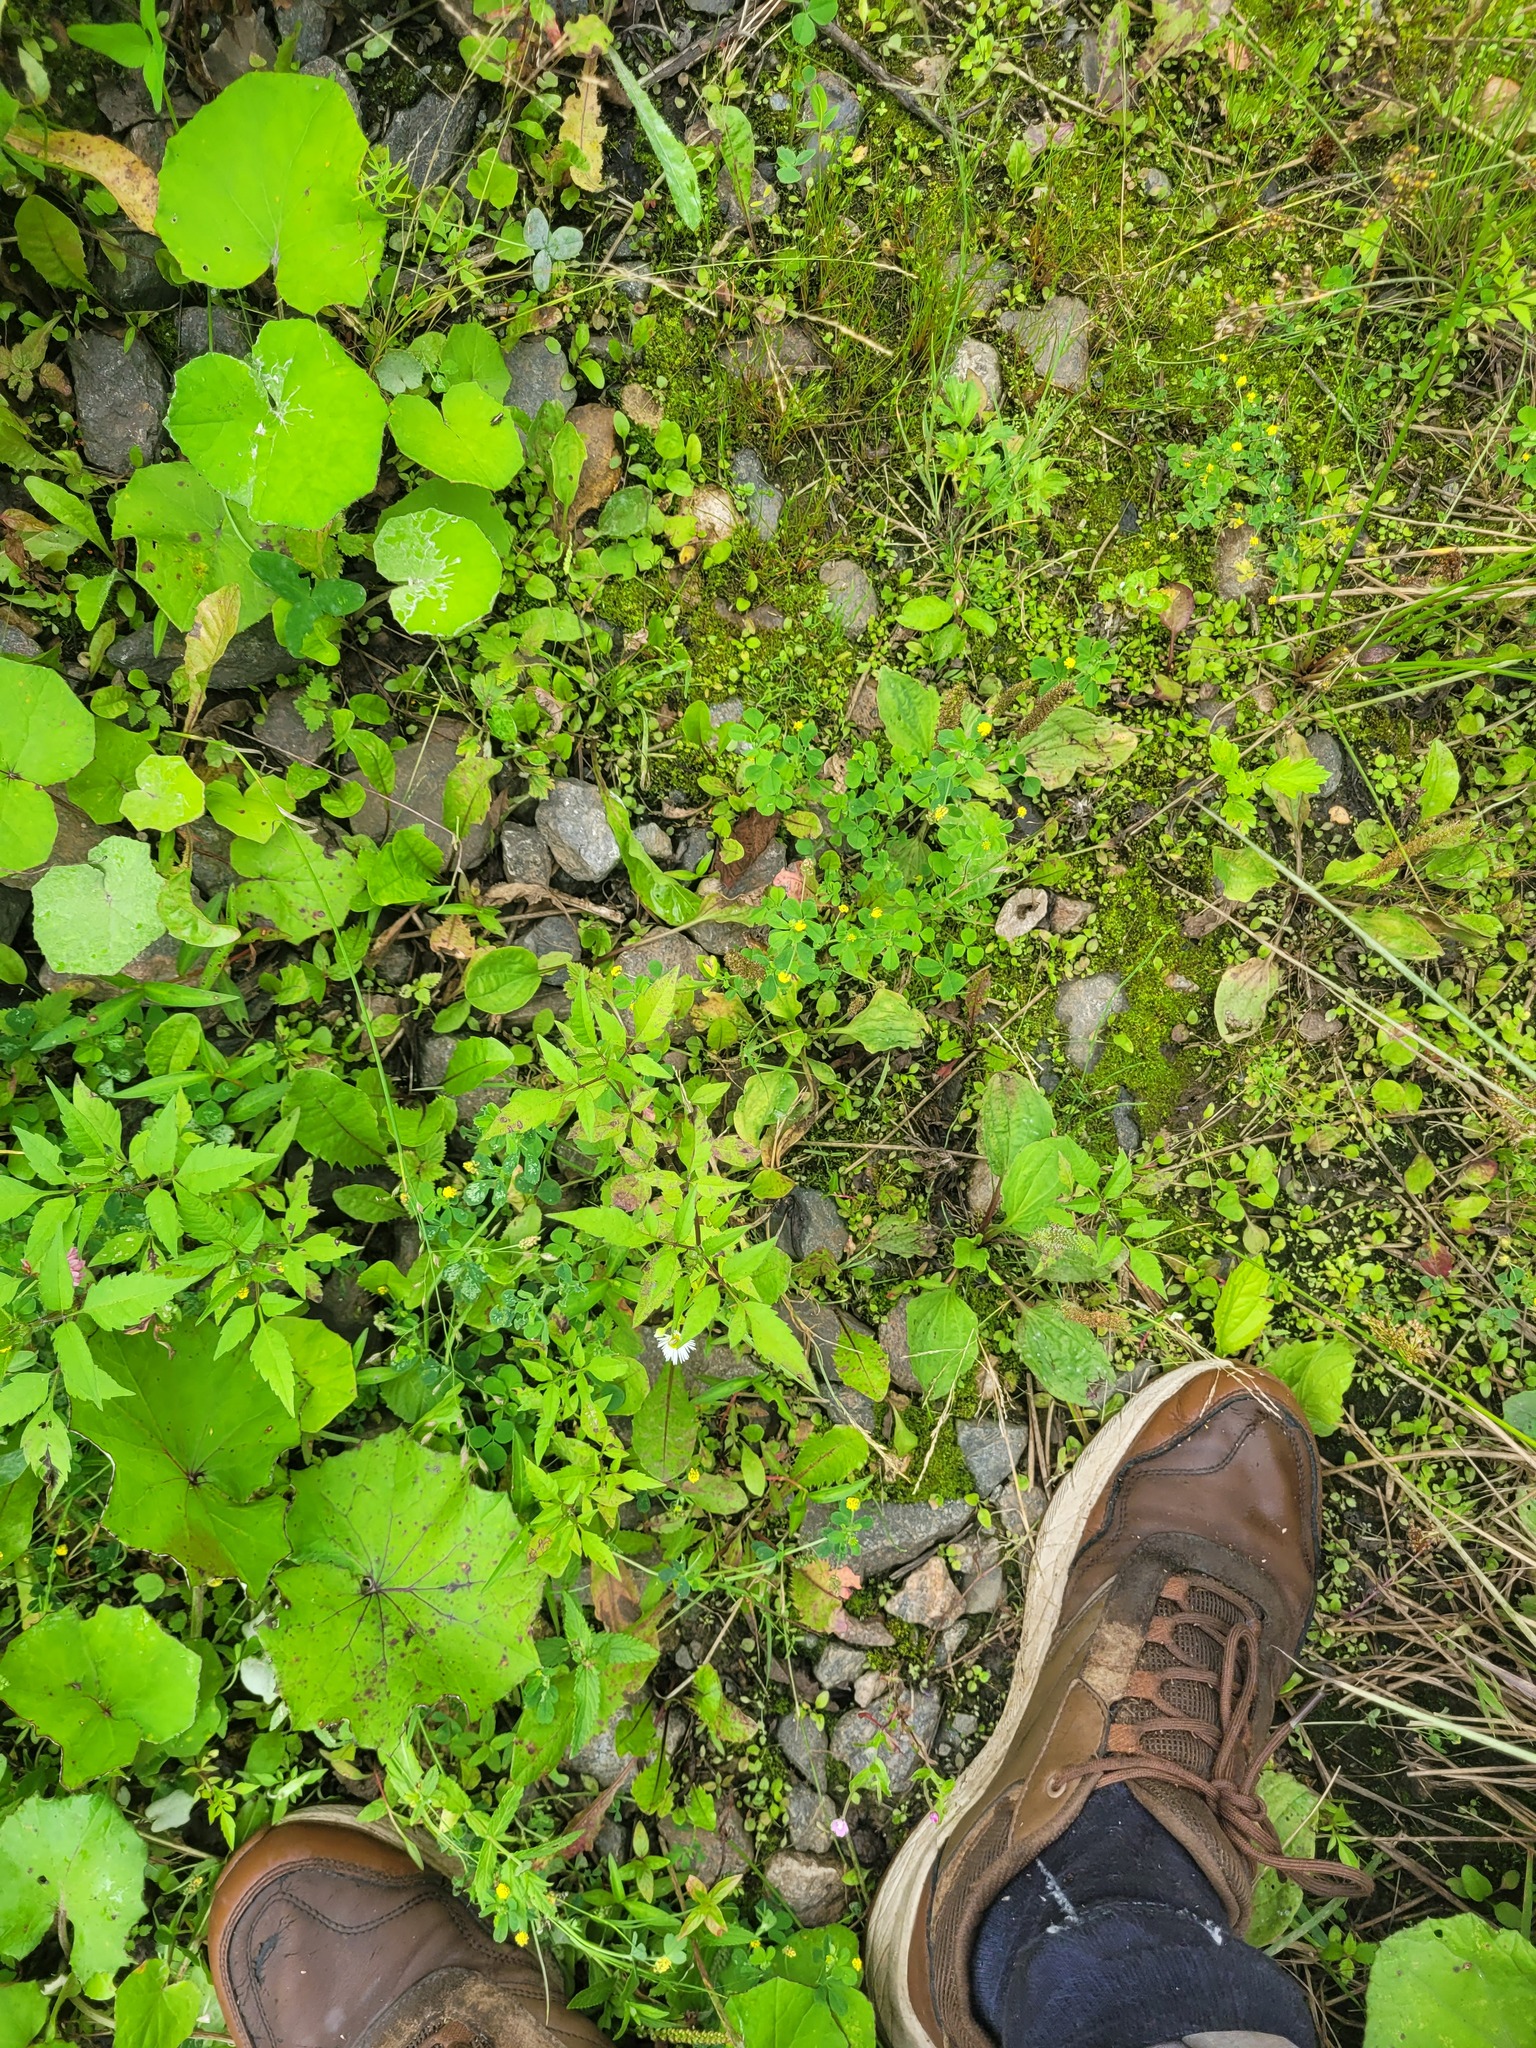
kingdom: Plantae
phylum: Tracheophyta
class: Magnoliopsida
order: Asterales
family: Asteraceae
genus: Bidens
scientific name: Bidens frondosa
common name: Beggarticks
